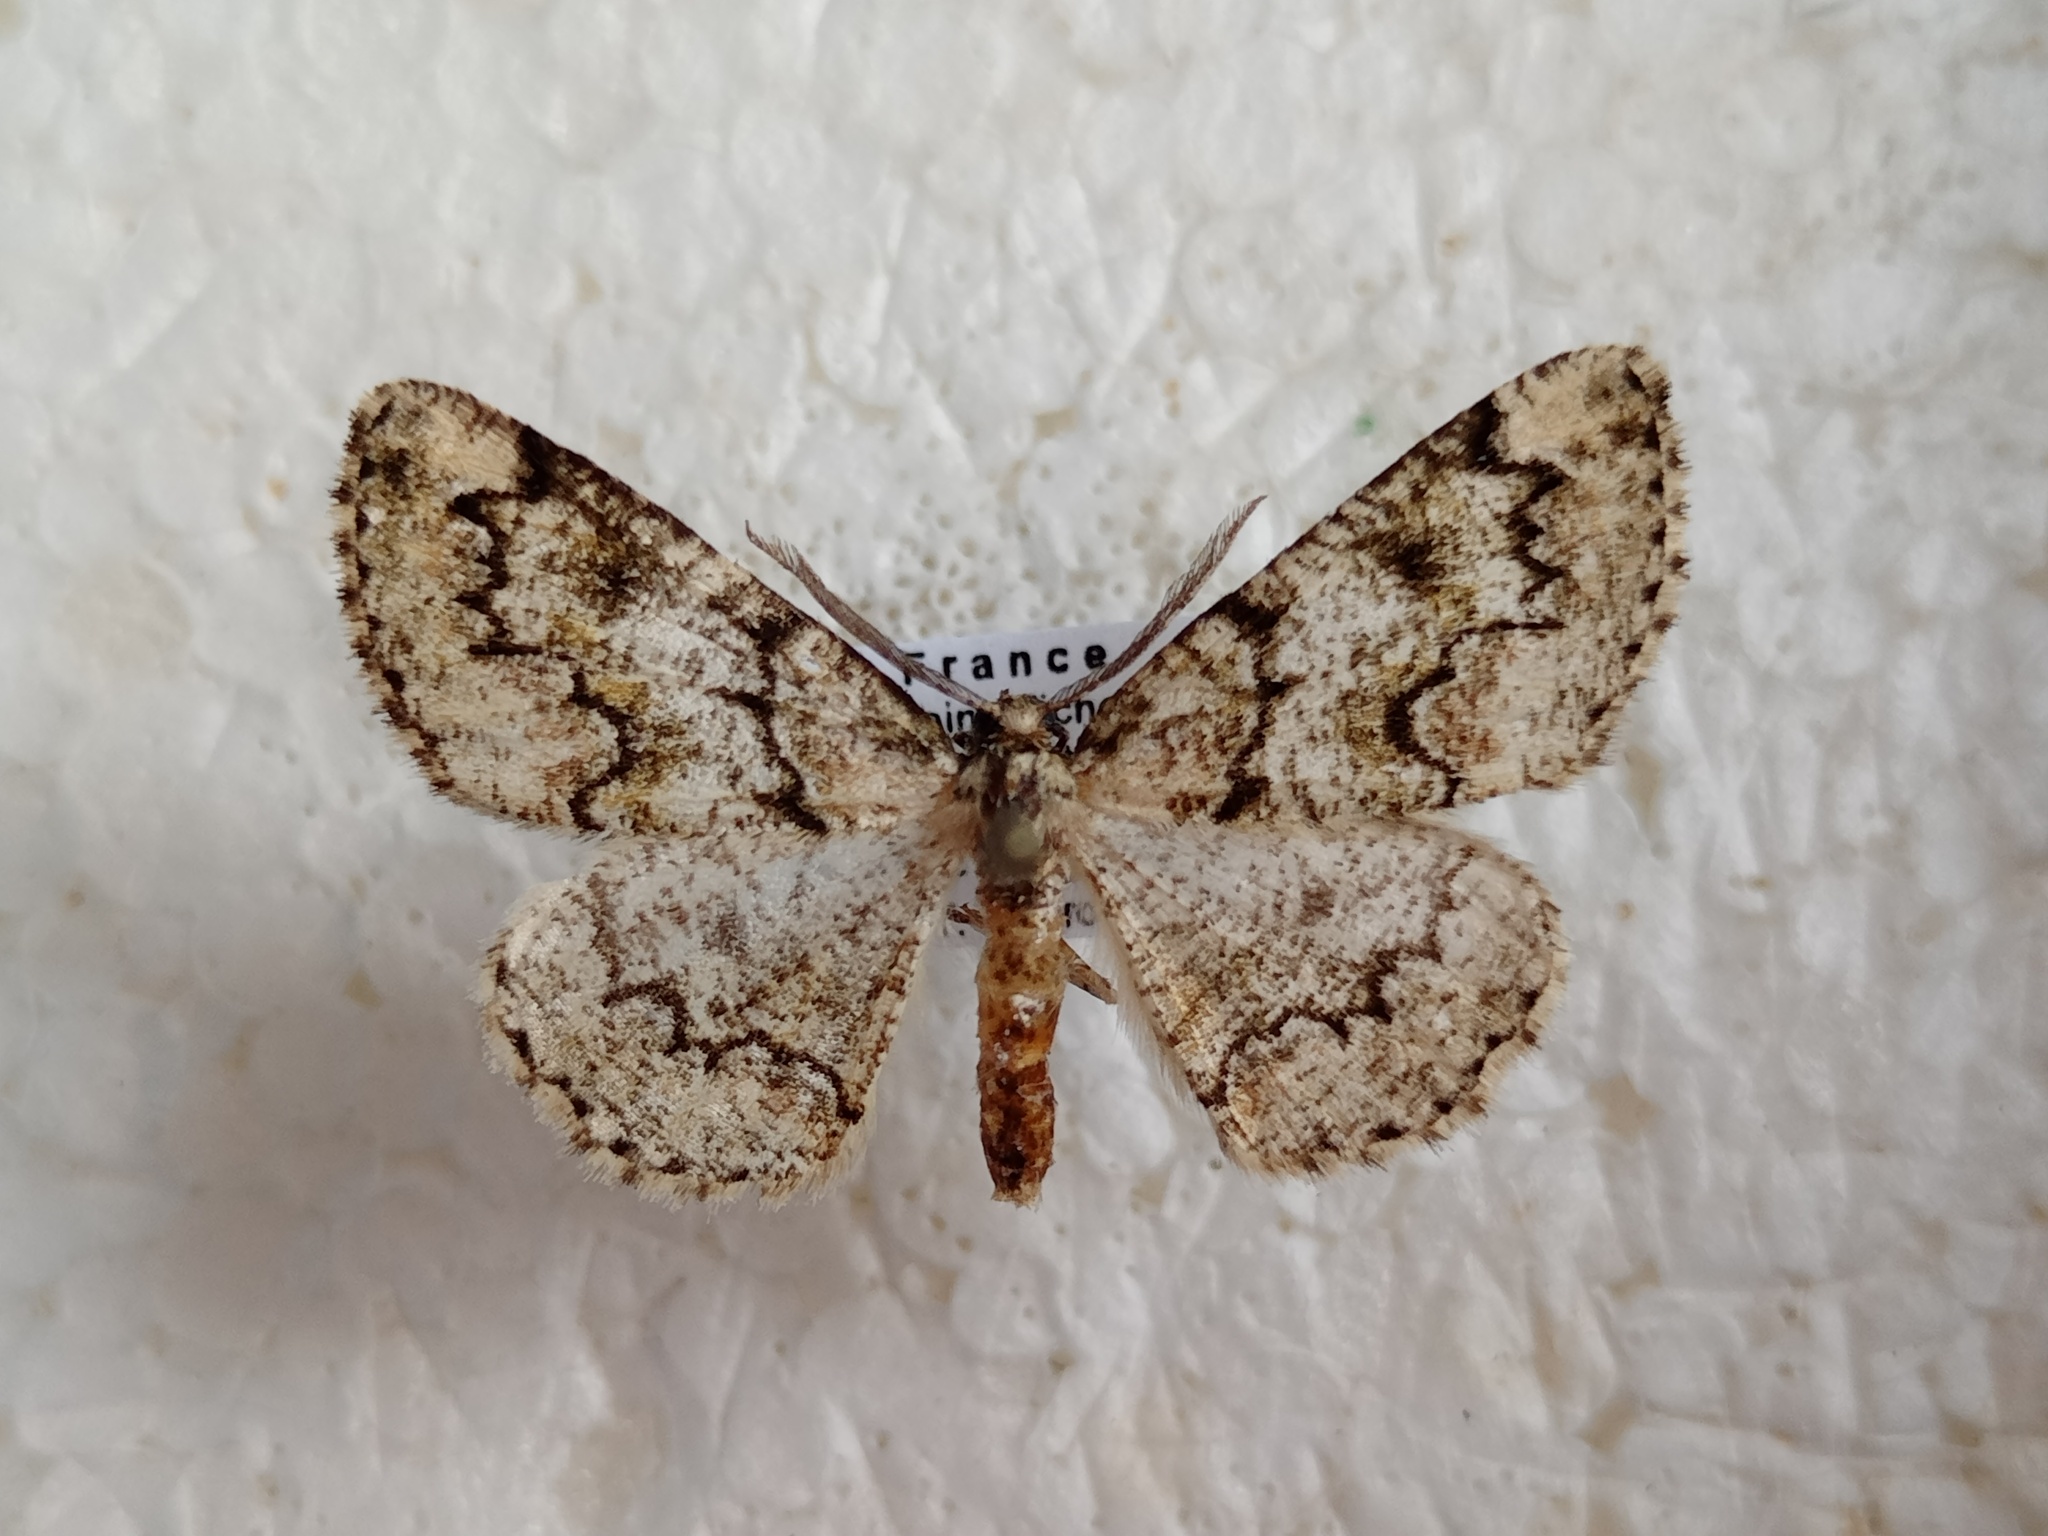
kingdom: Animalia
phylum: Arthropoda
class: Insecta
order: Lepidoptera
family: Geometridae
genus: Cleorodes
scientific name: Cleorodes lichenaria
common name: Brussels lace
